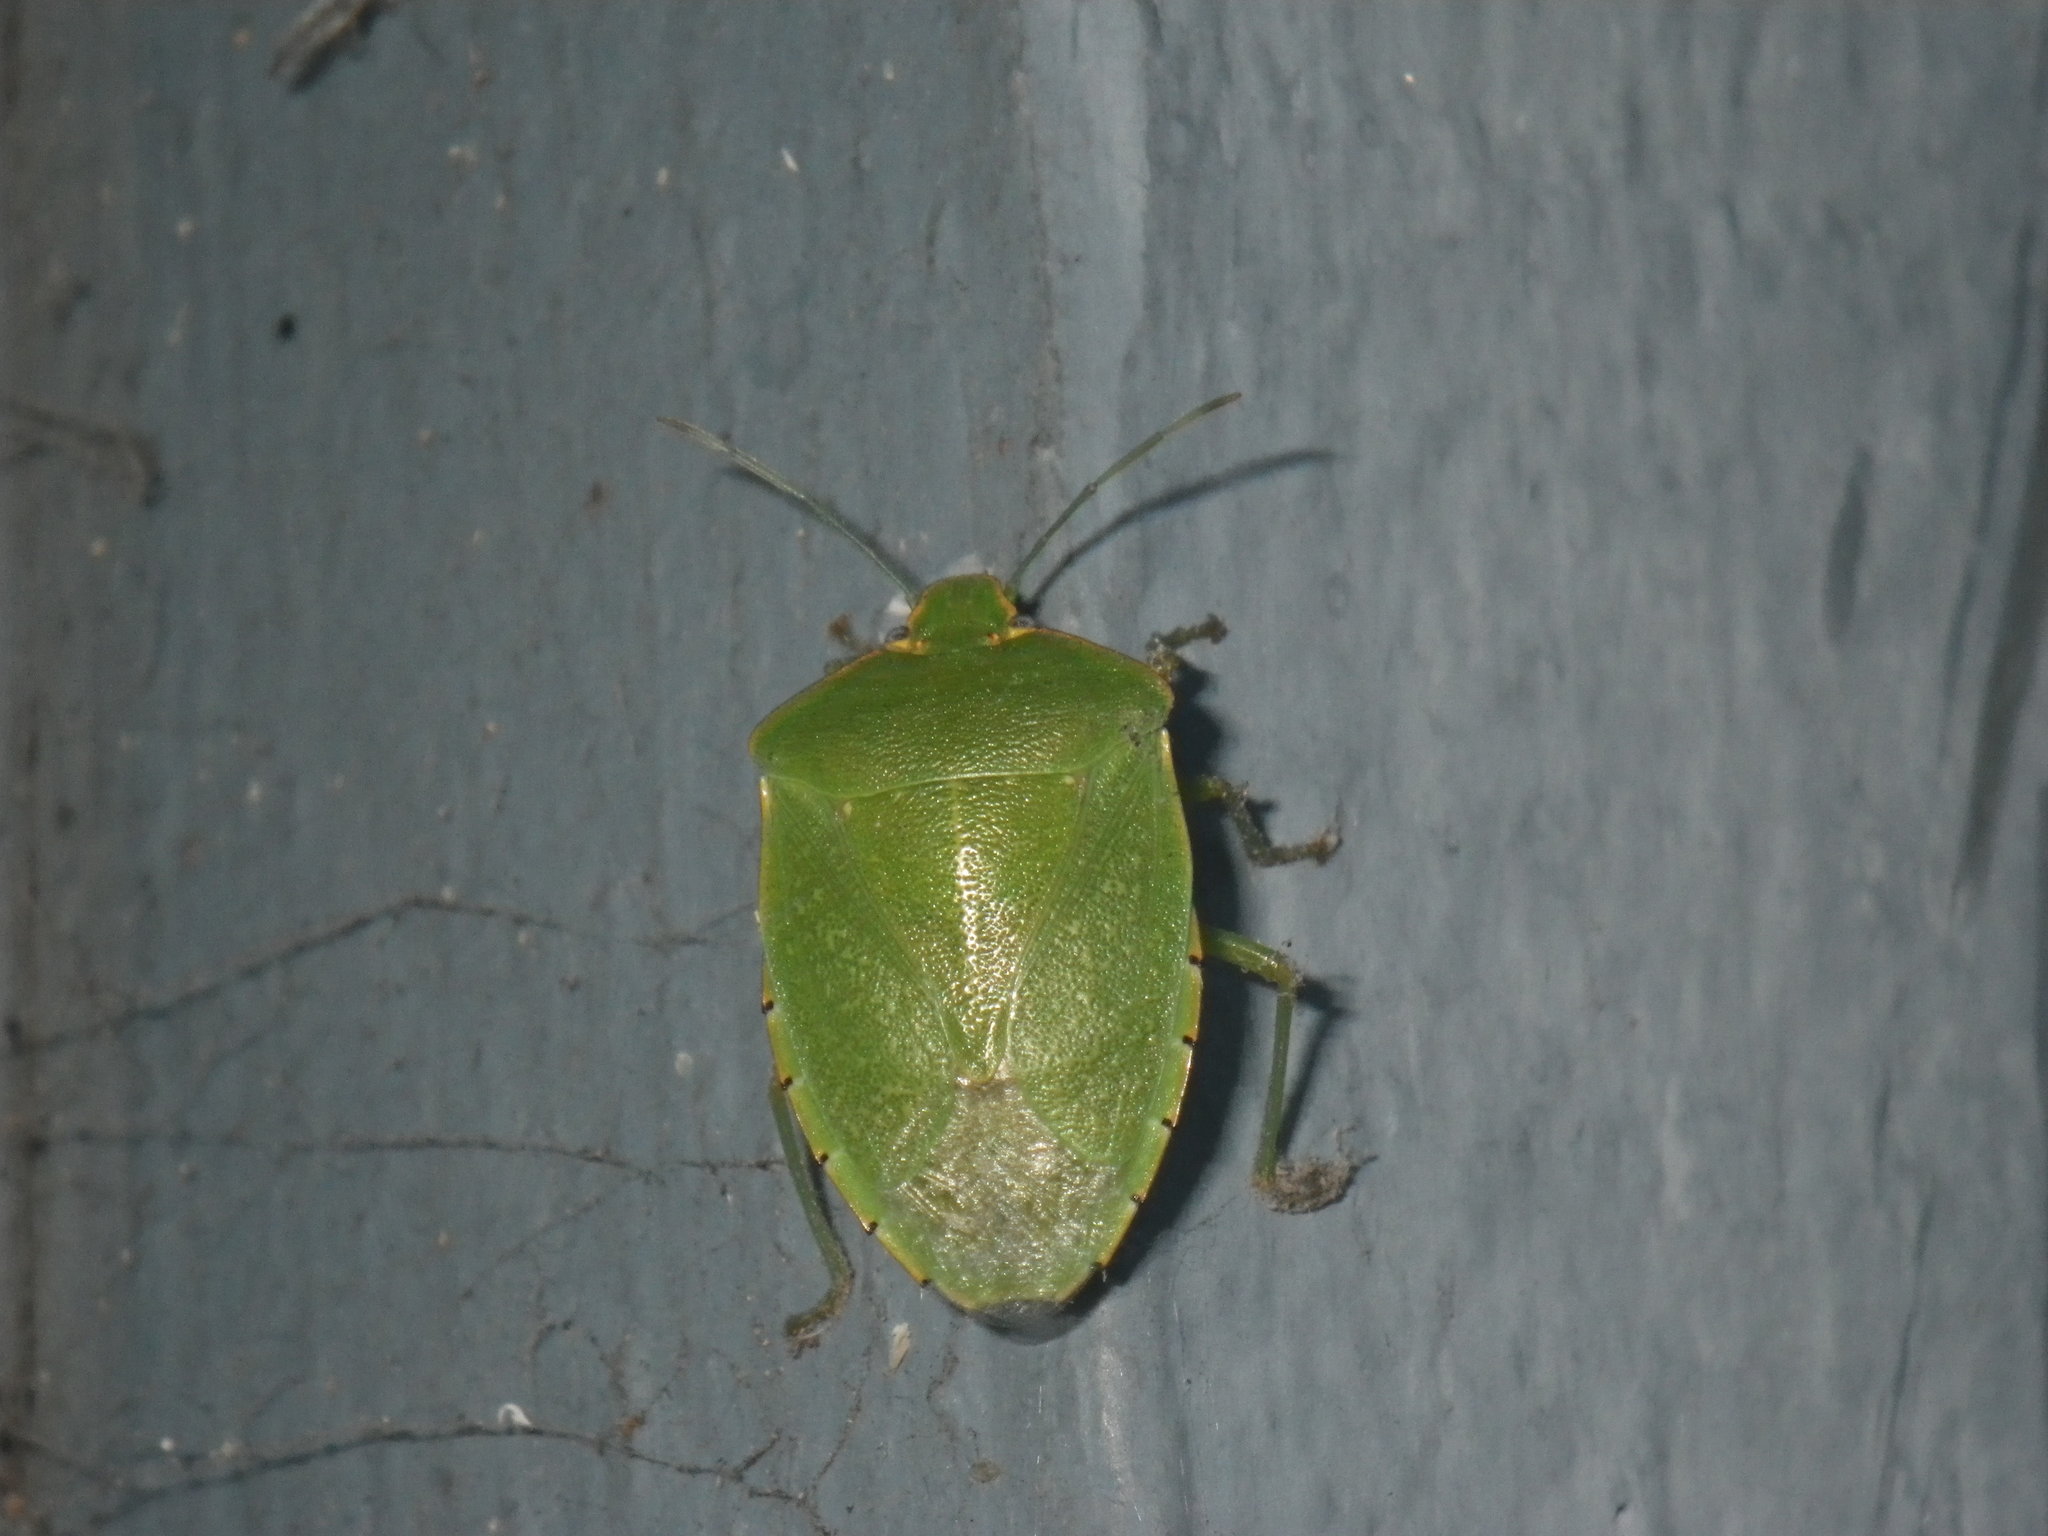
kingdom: Animalia
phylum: Arthropoda
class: Insecta
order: Hemiptera
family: Pentatomidae
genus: Chinavia
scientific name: Chinavia hilaris
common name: Green stink bug
